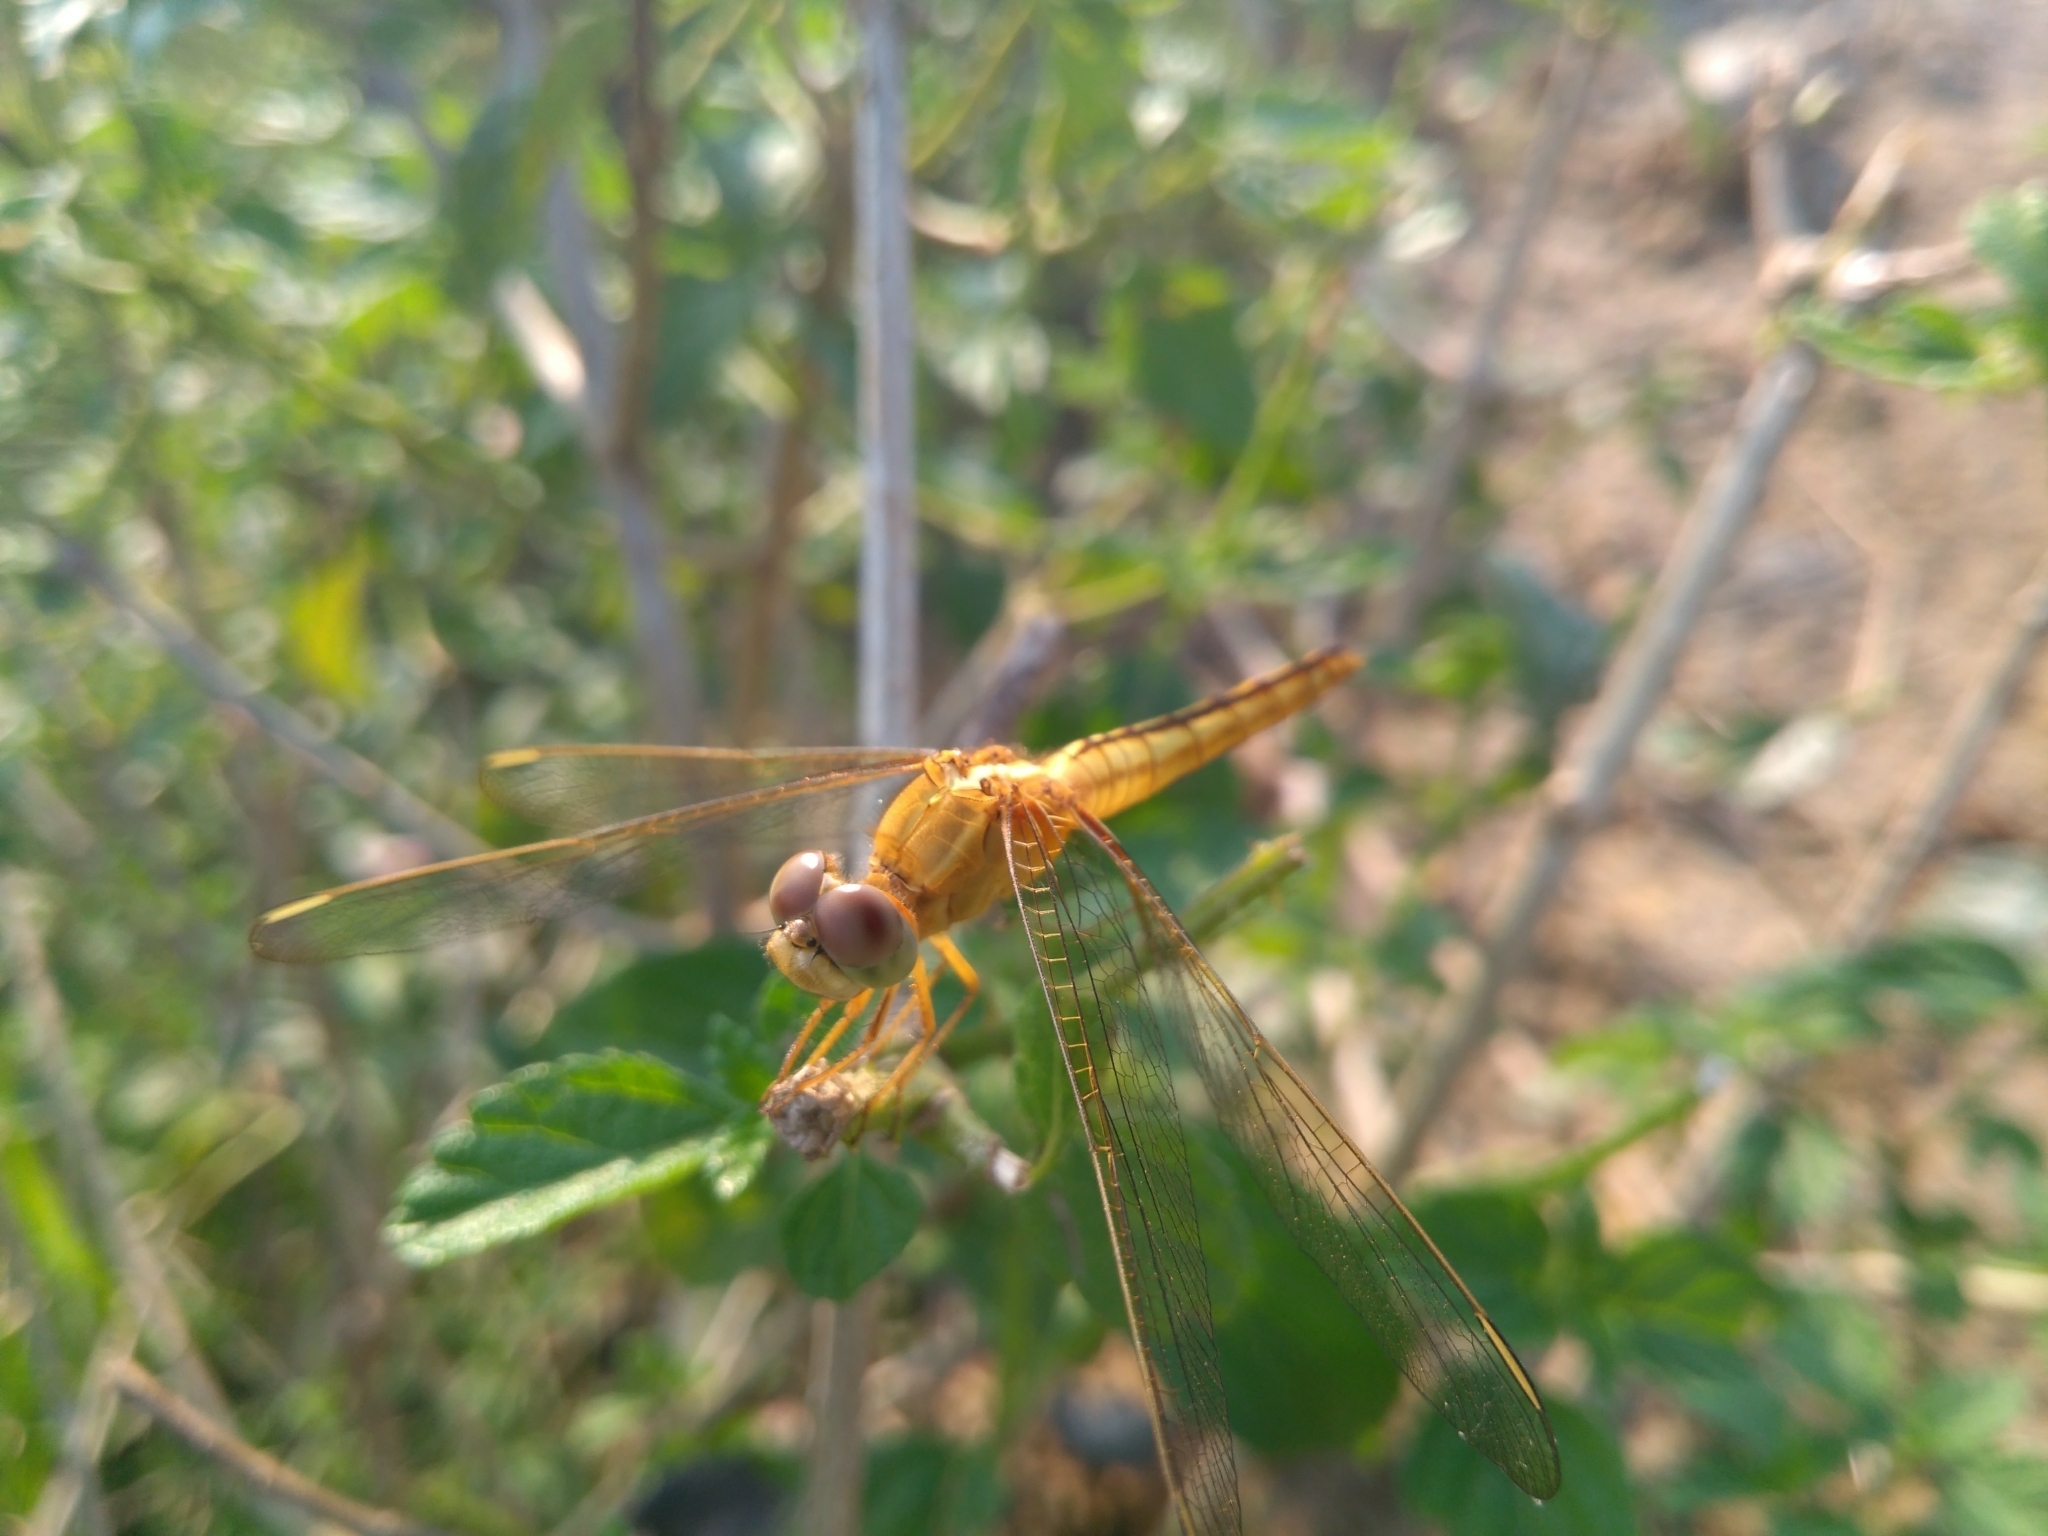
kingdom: Animalia
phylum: Arthropoda
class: Insecta
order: Odonata
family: Libellulidae
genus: Crocothemis
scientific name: Crocothemis servilia
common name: Scarlet skimmer
